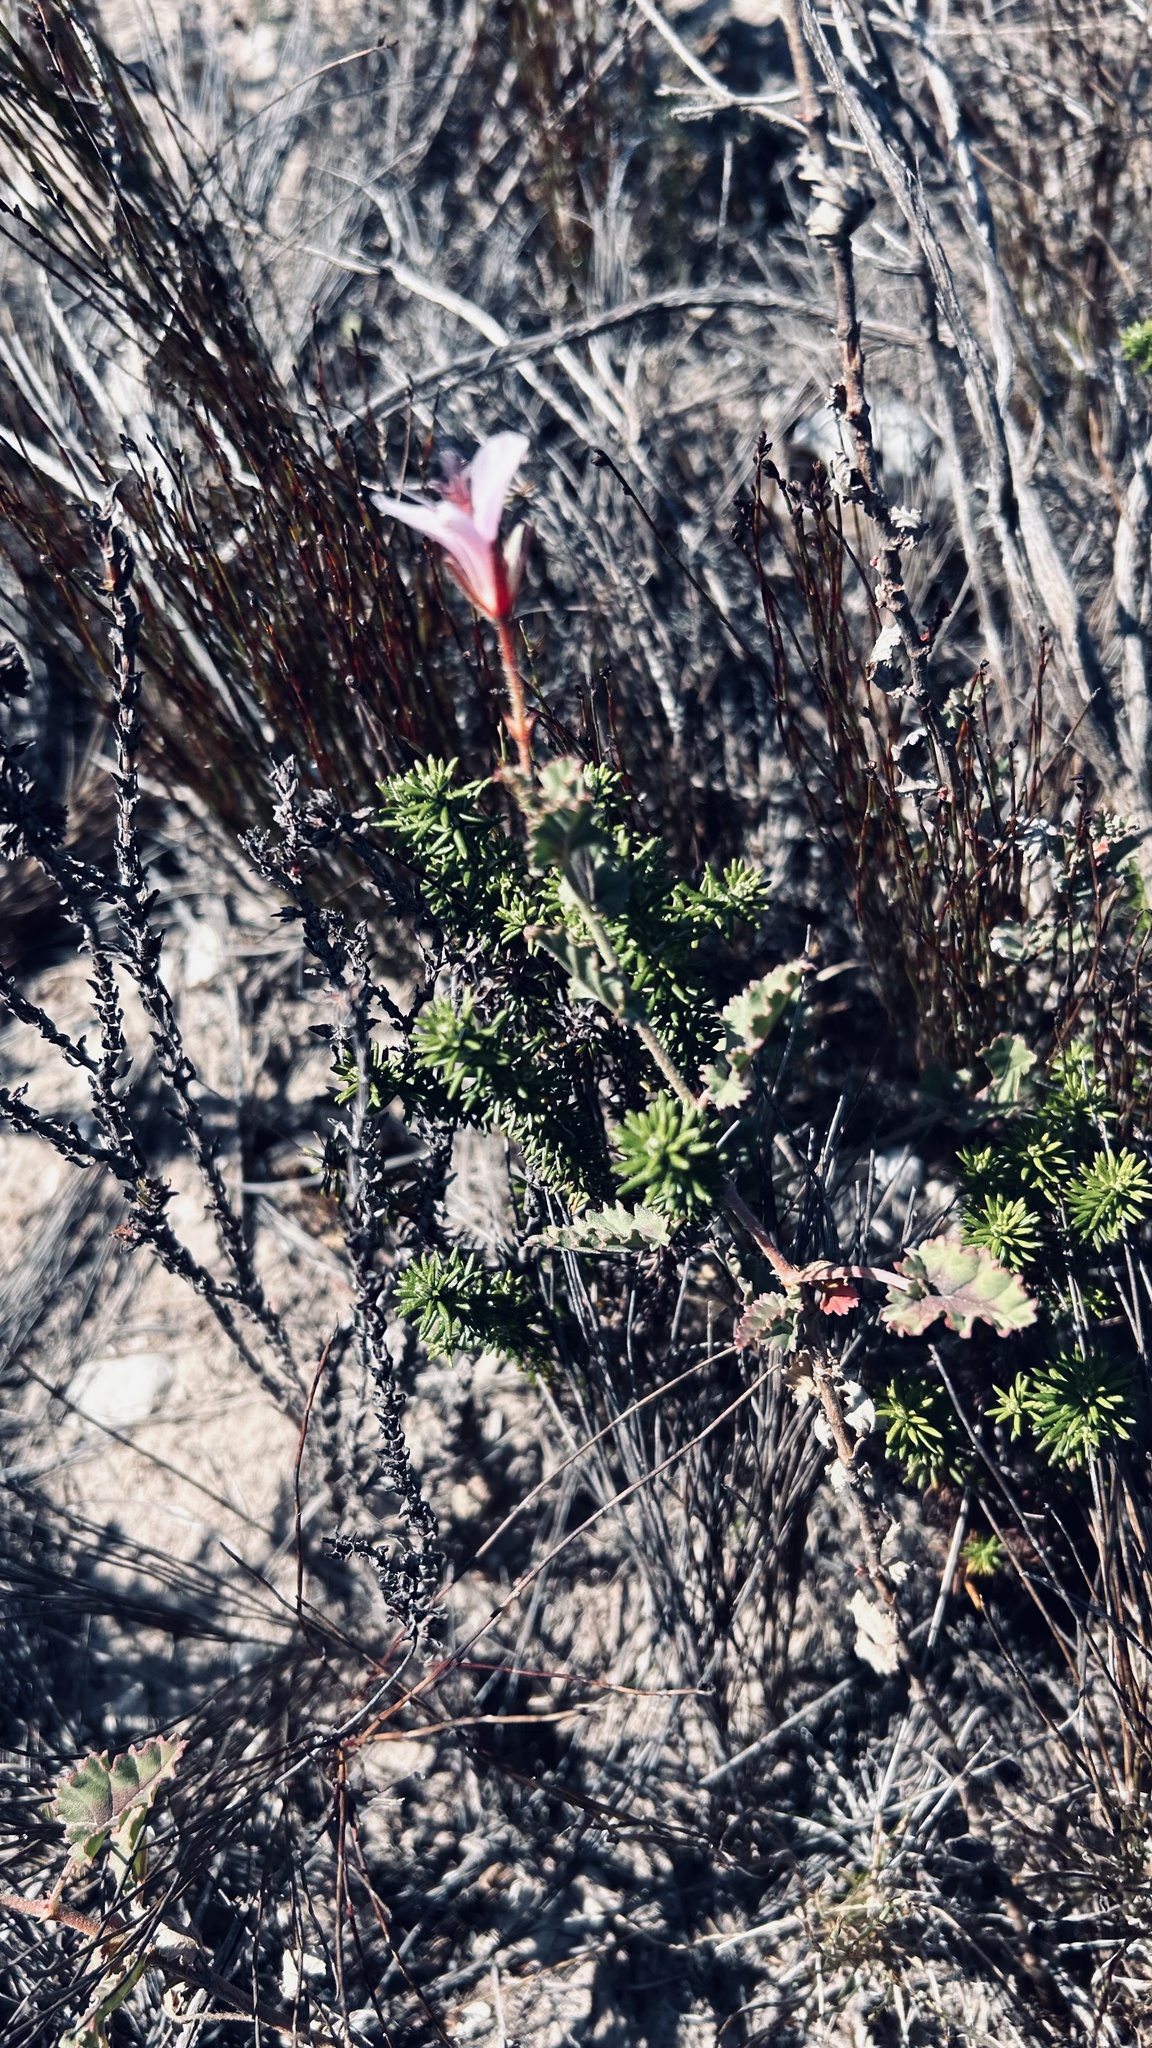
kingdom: Plantae
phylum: Tracheophyta
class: Magnoliopsida
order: Geraniales
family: Geraniaceae
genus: Pelargonium
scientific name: Pelargonium caucalifolium
